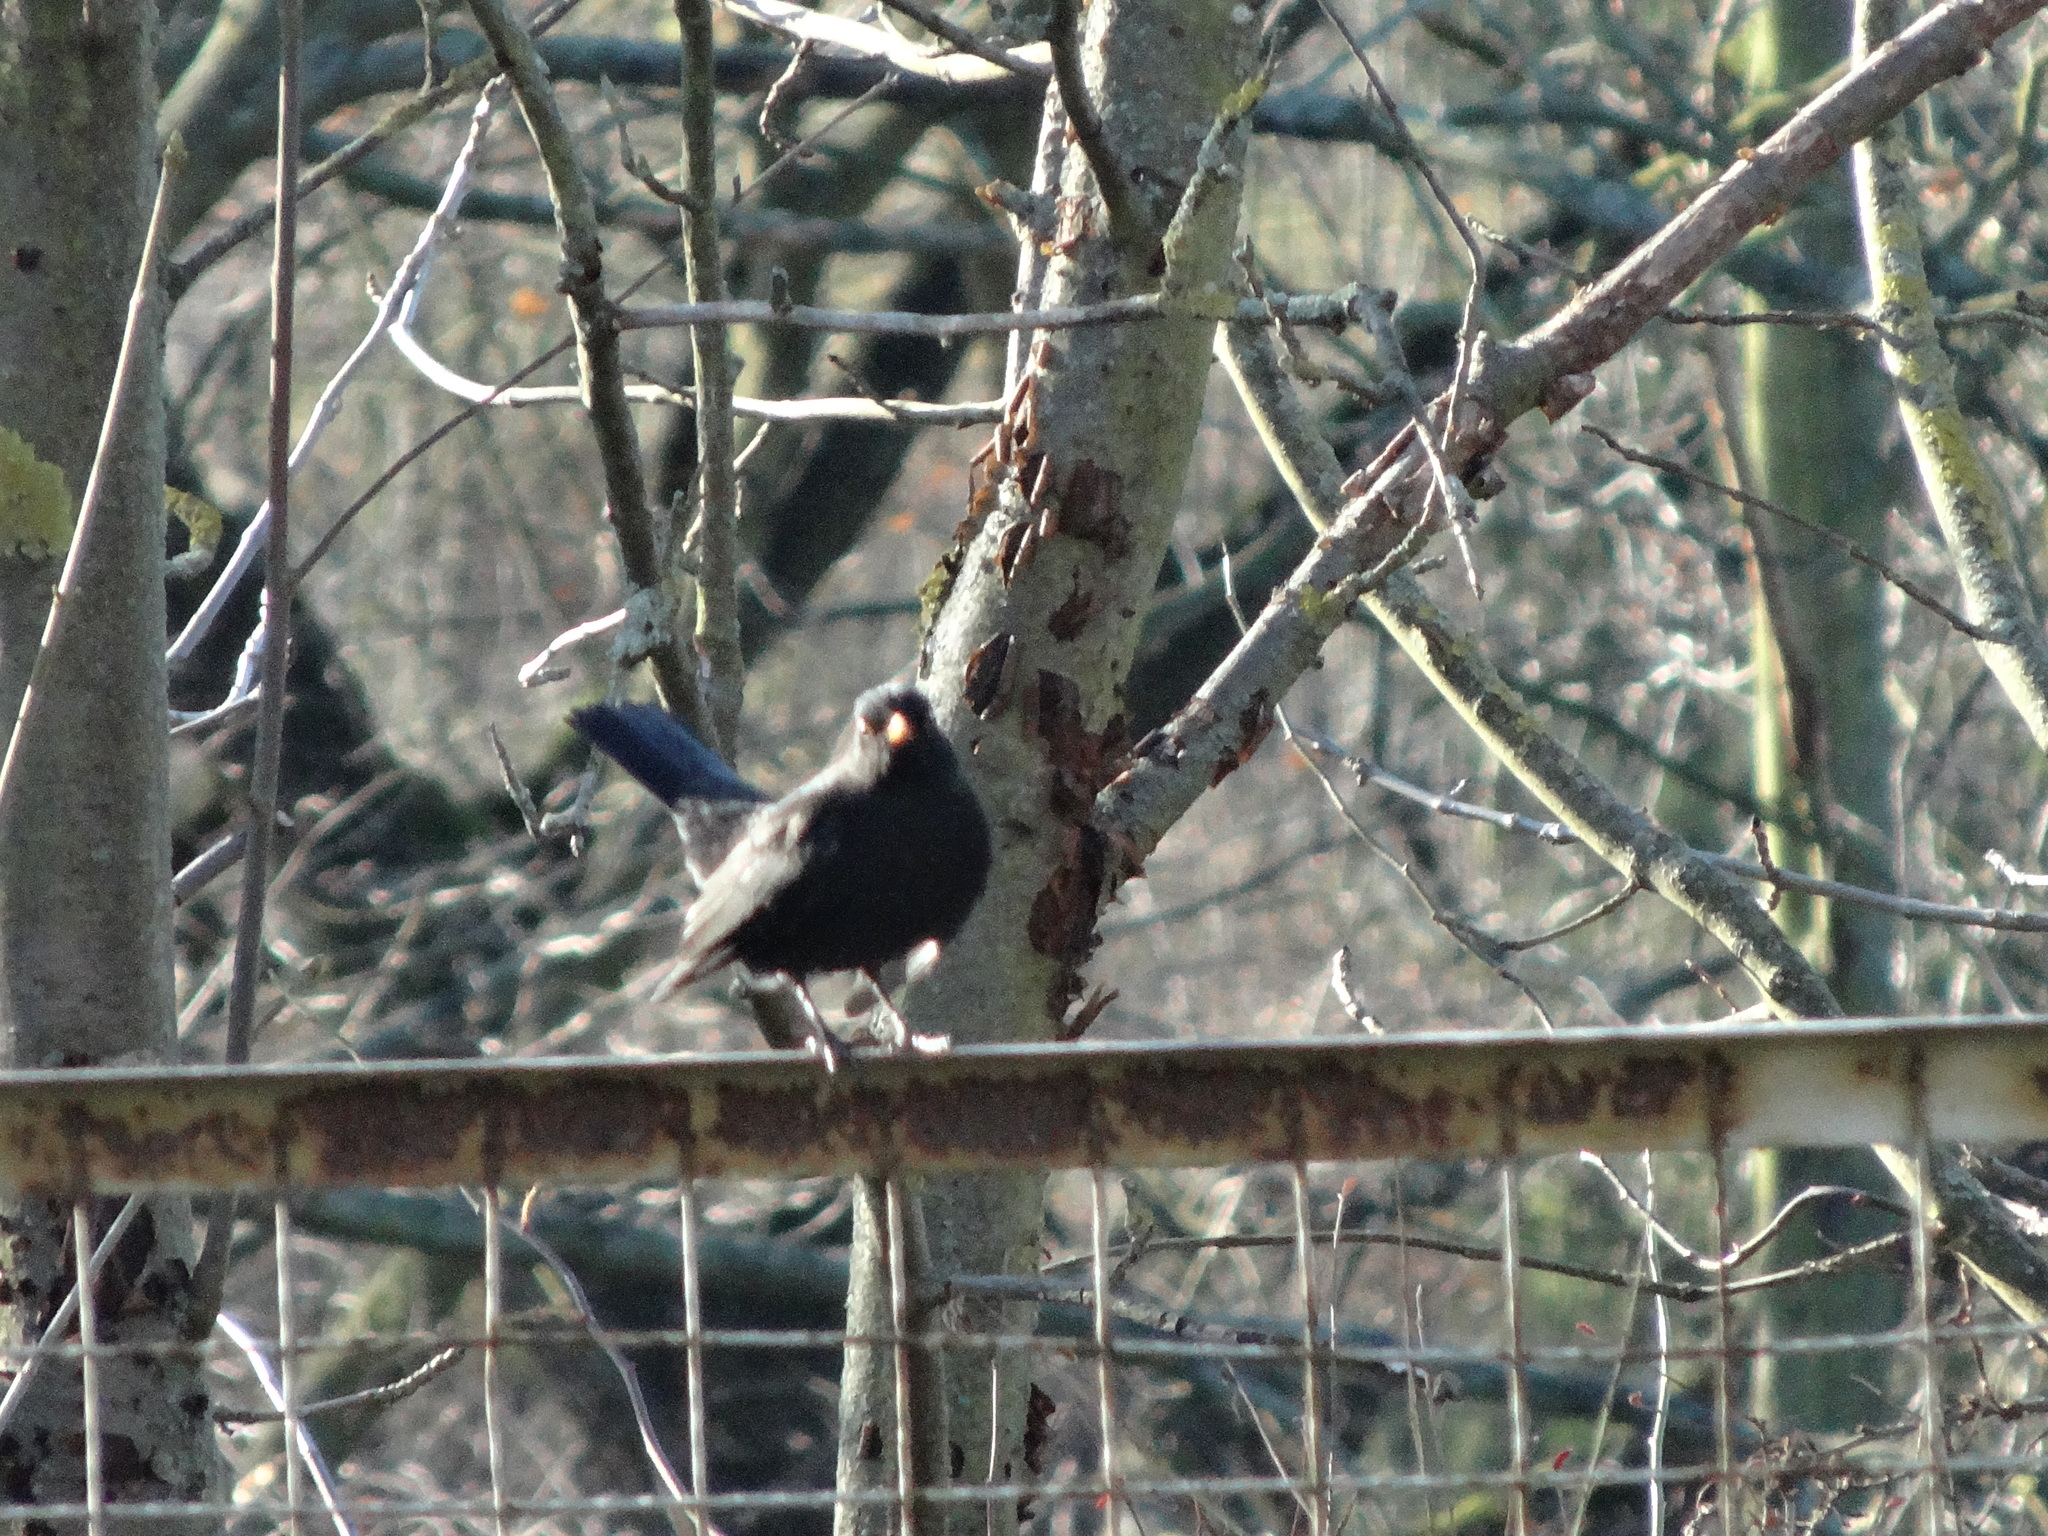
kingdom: Animalia
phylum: Chordata
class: Aves
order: Passeriformes
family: Turdidae
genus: Turdus
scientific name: Turdus merula
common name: Common blackbird
